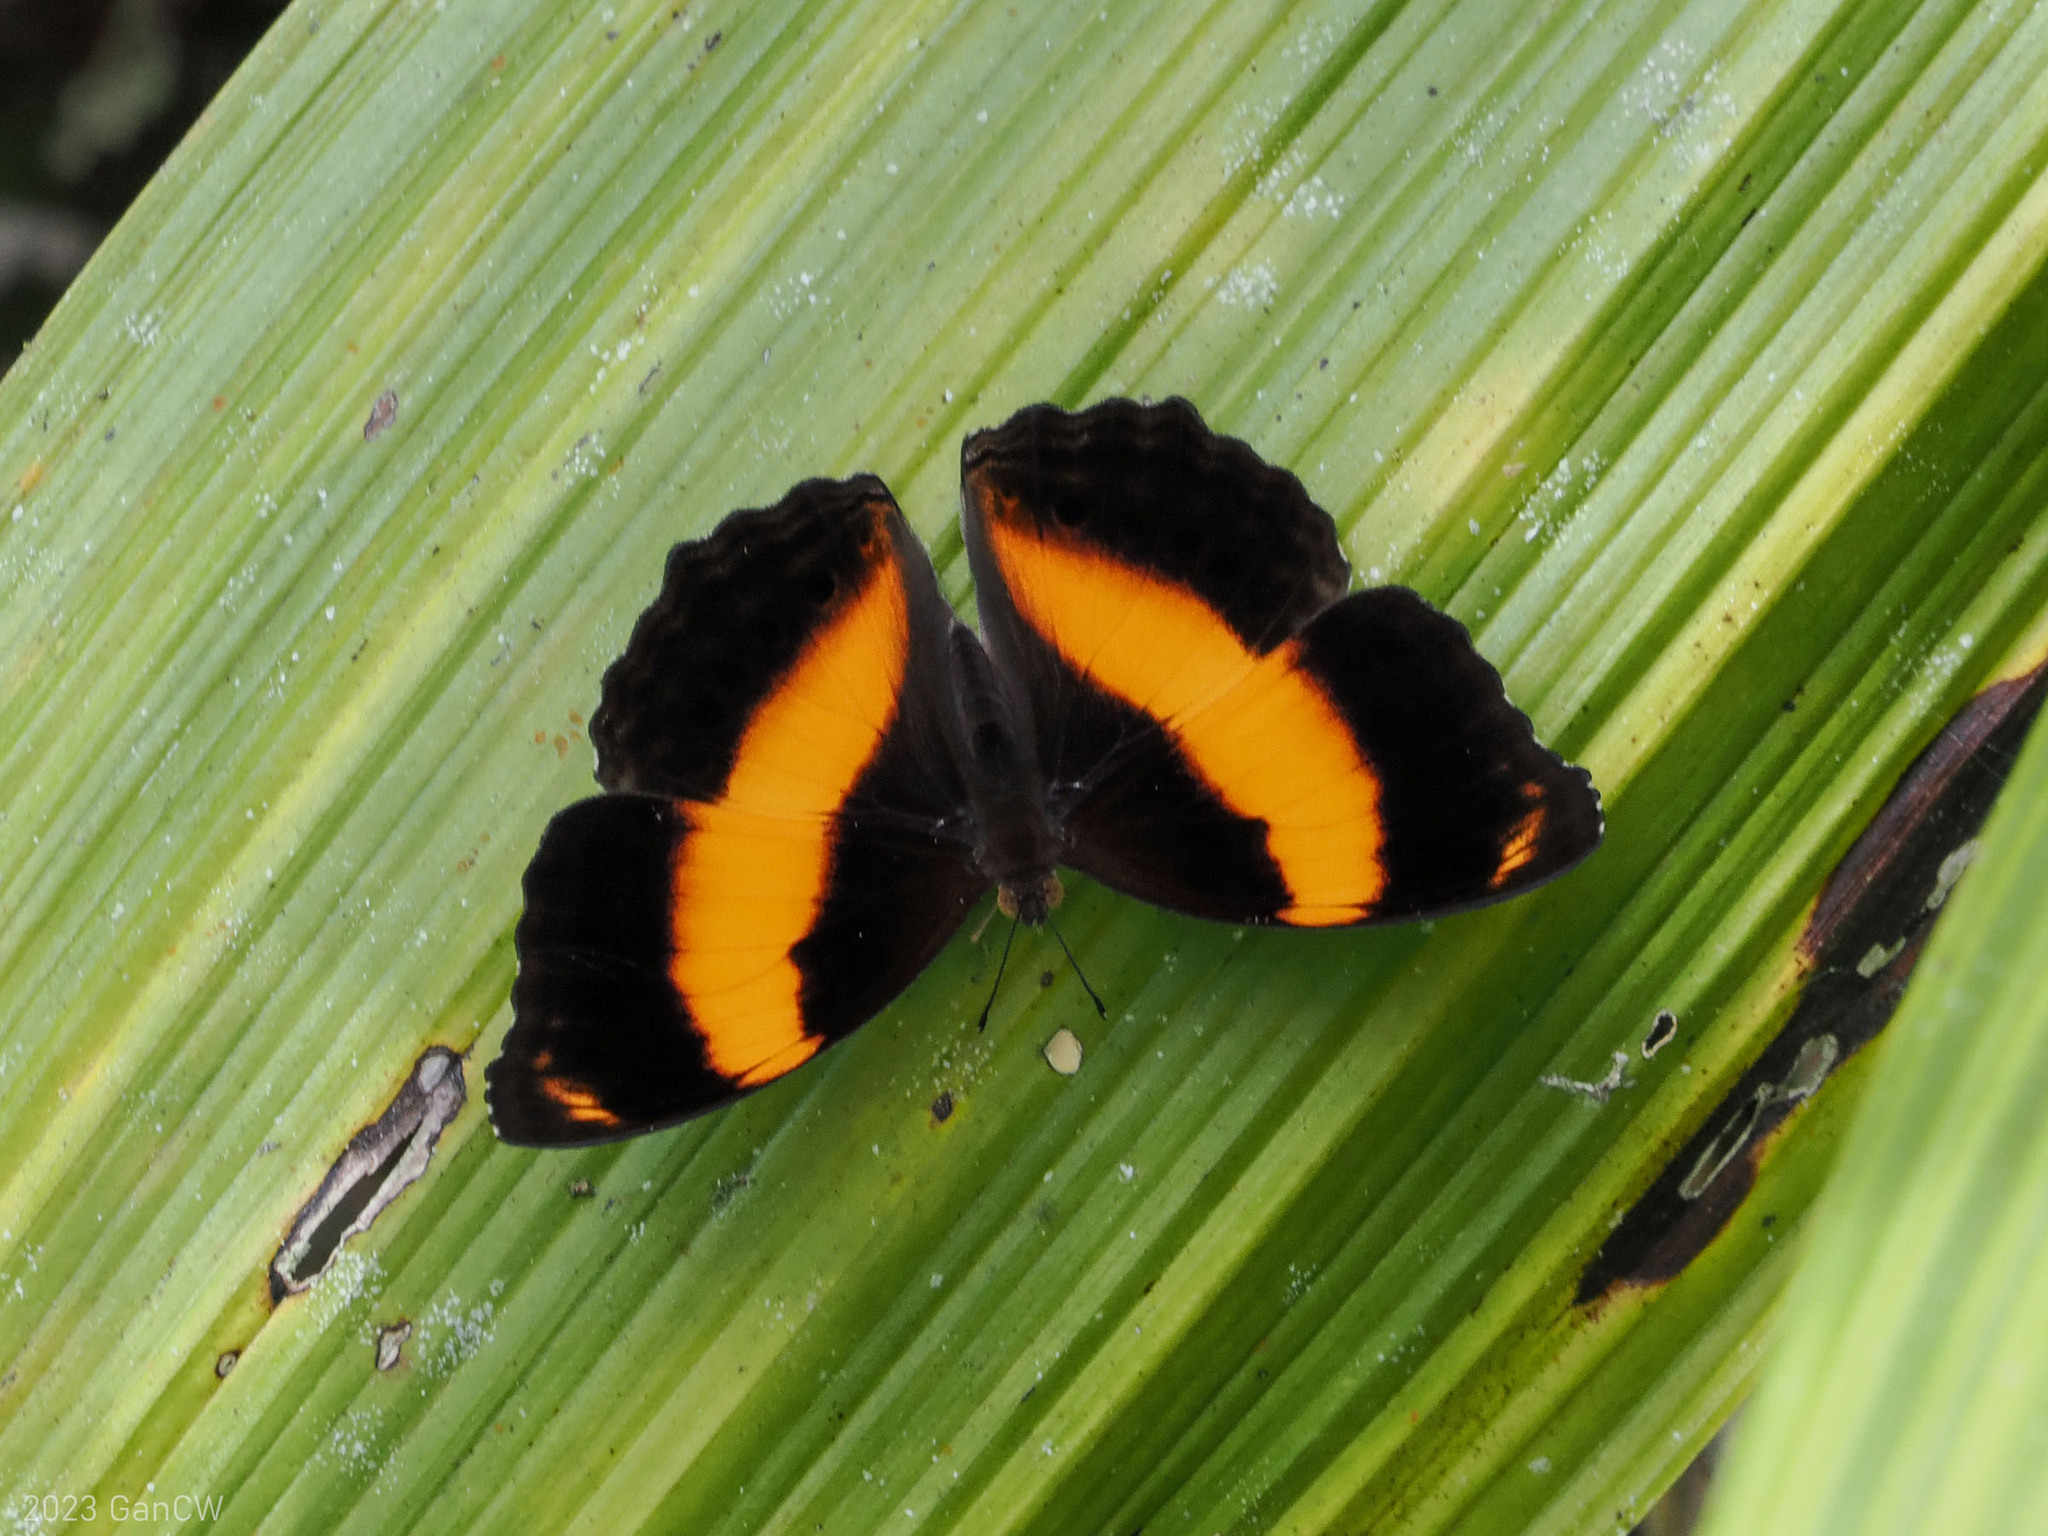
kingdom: Animalia
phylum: Arthropoda
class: Insecta
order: Lepidoptera
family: Nymphalidae
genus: Yoma
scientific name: Yoma algina
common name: New guinea lurcher
